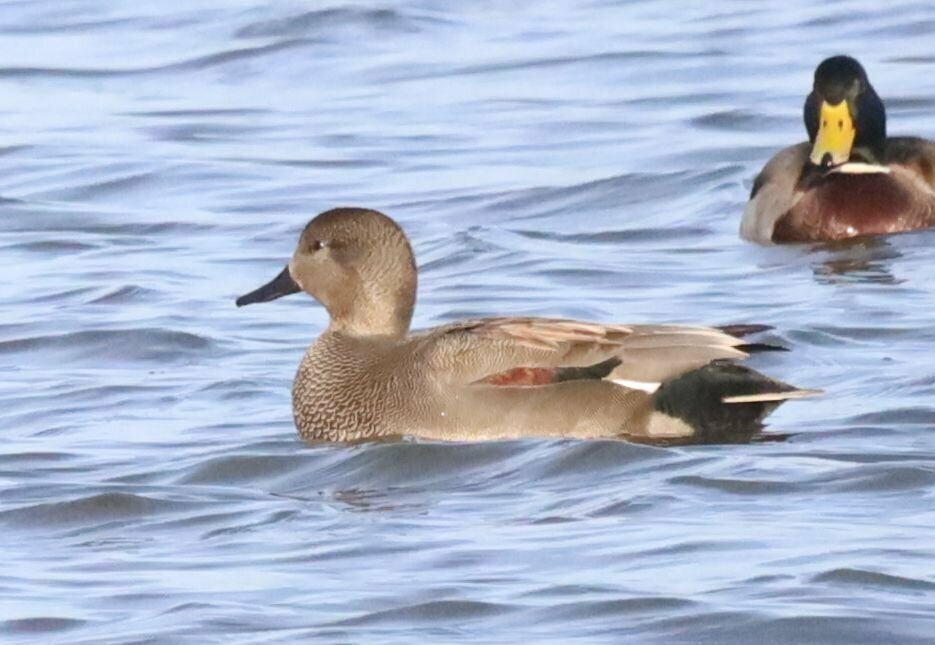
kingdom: Animalia
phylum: Chordata
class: Aves
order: Anseriformes
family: Anatidae
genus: Mareca
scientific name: Mareca strepera
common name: Gadwall
